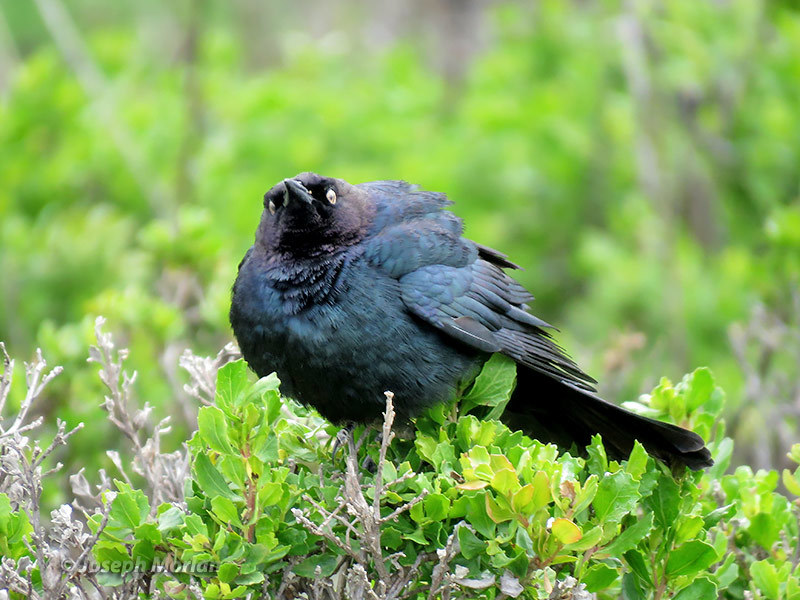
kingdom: Animalia
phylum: Chordata
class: Aves
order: Passeriformes
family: Icteridae
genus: Euphagus
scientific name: Euphagus cyanocephalus
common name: Brewer's blackbird
